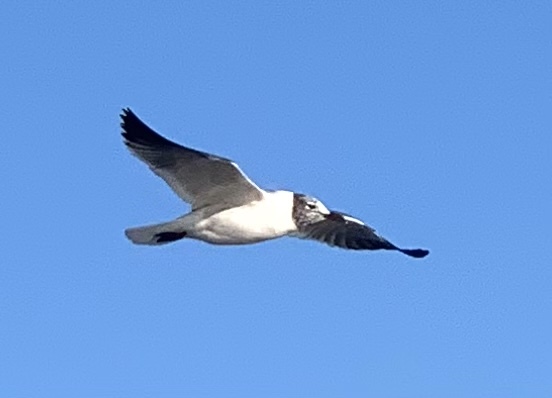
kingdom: Animalia
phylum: Chordata
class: Aves
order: Charadriiformes
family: Laridae
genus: Leucophaeus
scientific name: Leucophaeus atricilla
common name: Laughing gull
